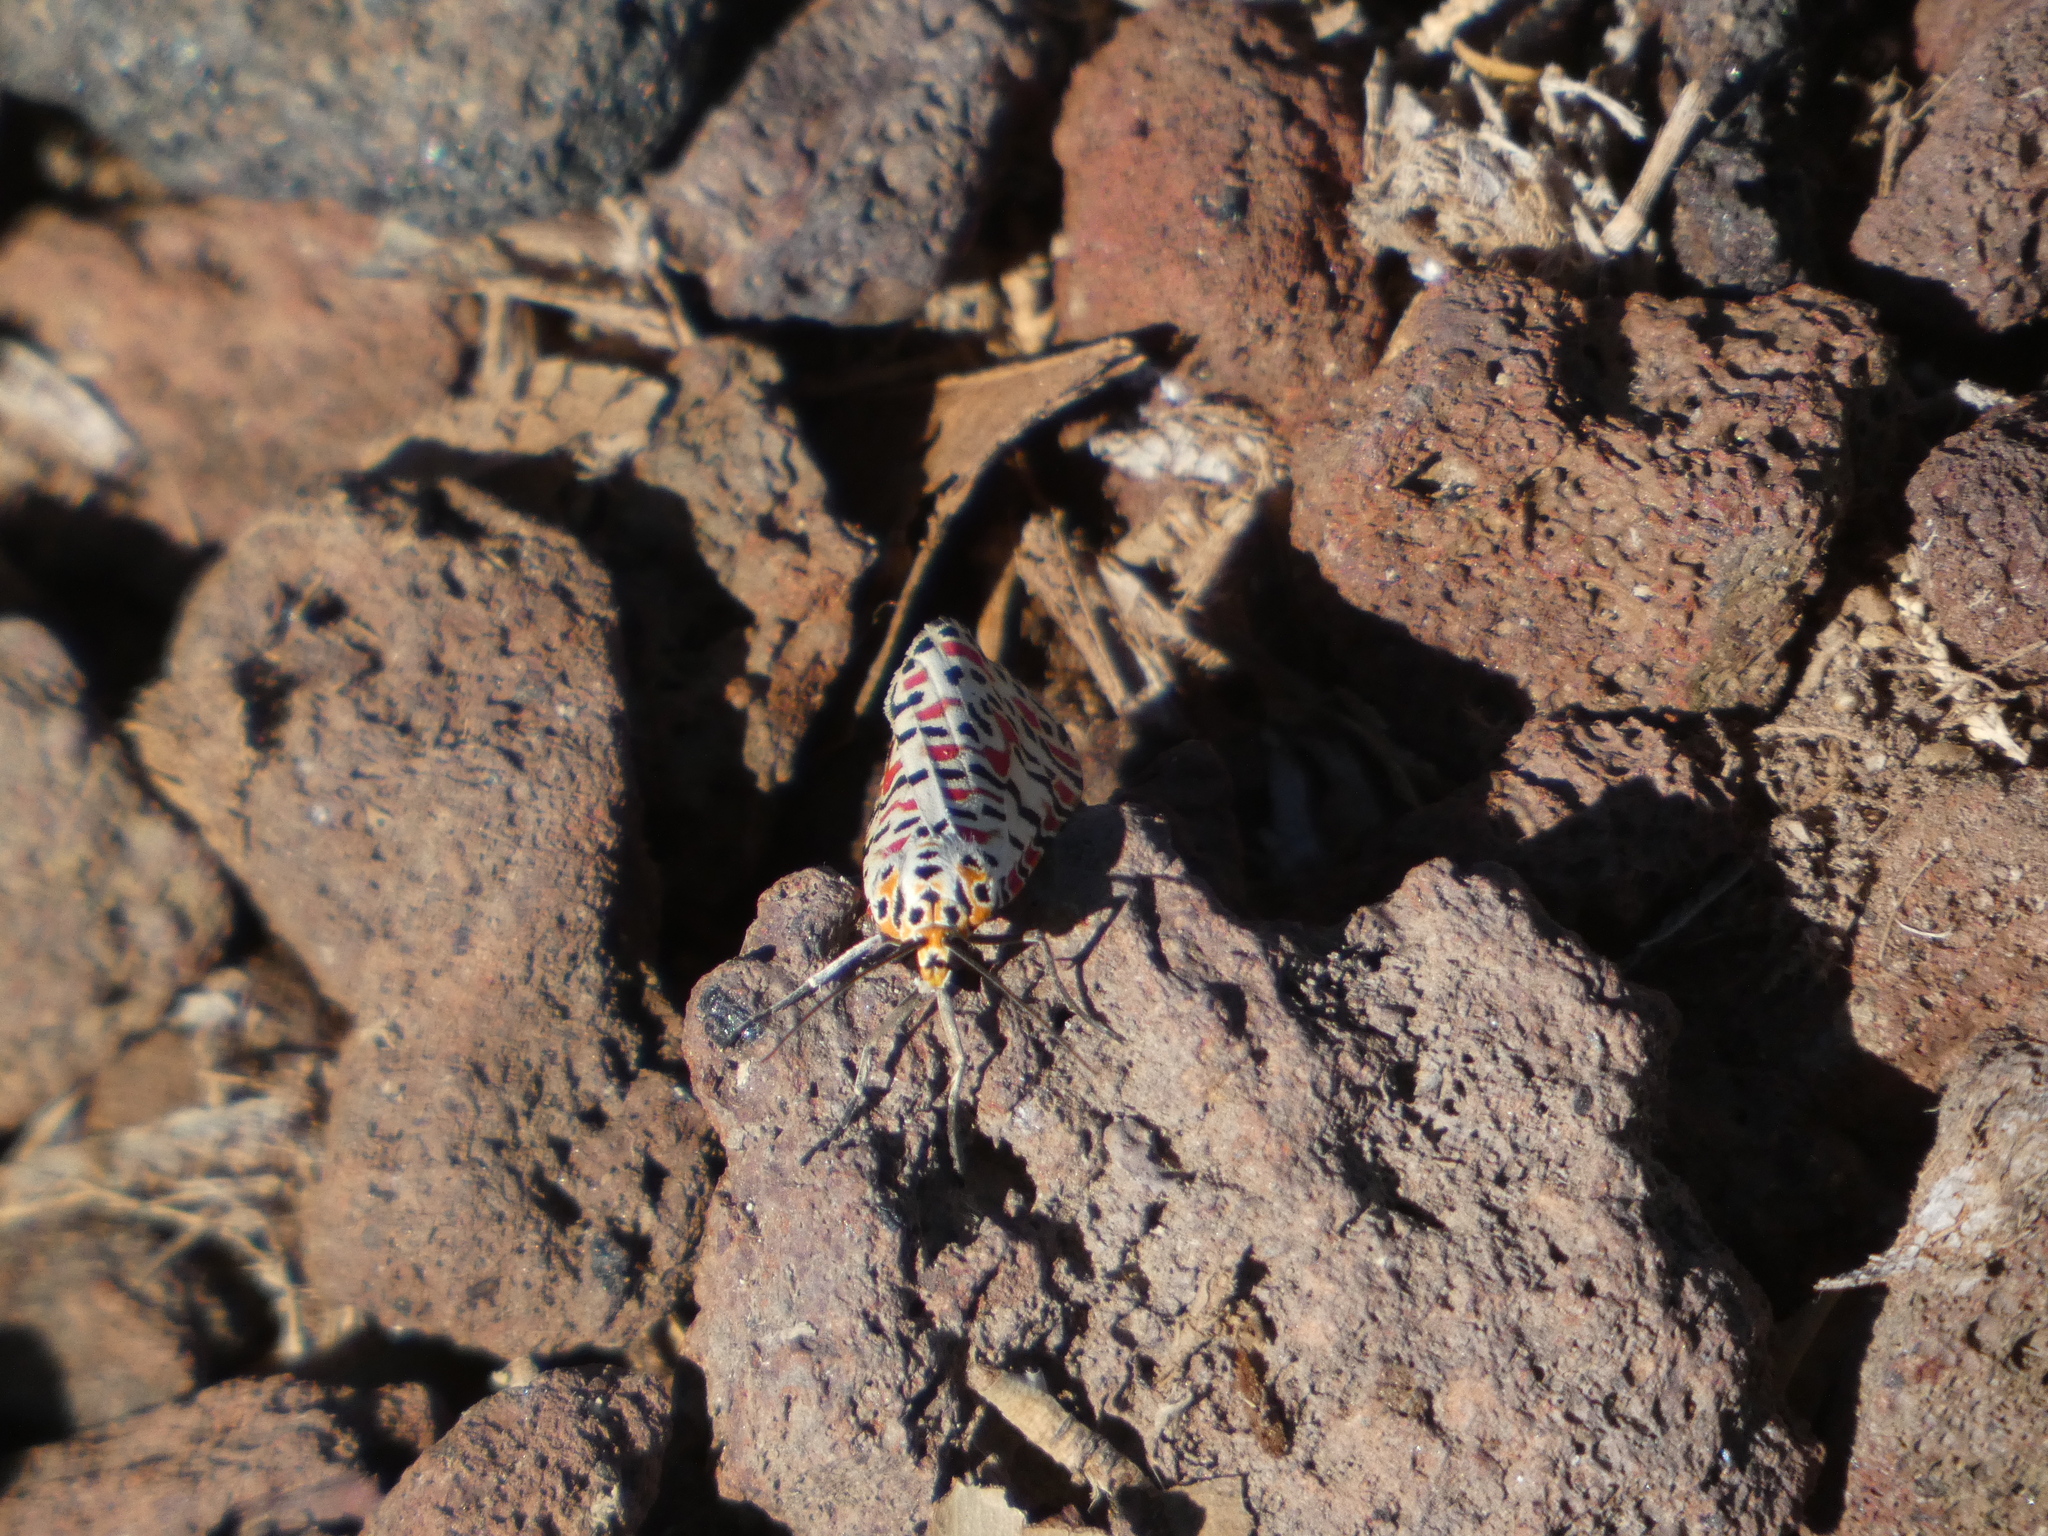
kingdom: Animalia
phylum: Arthropoda
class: Insecta
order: Lepidoptera
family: Erebidae
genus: Utetheisa
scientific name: Utetheisa pulchella
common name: Crimson speckled
